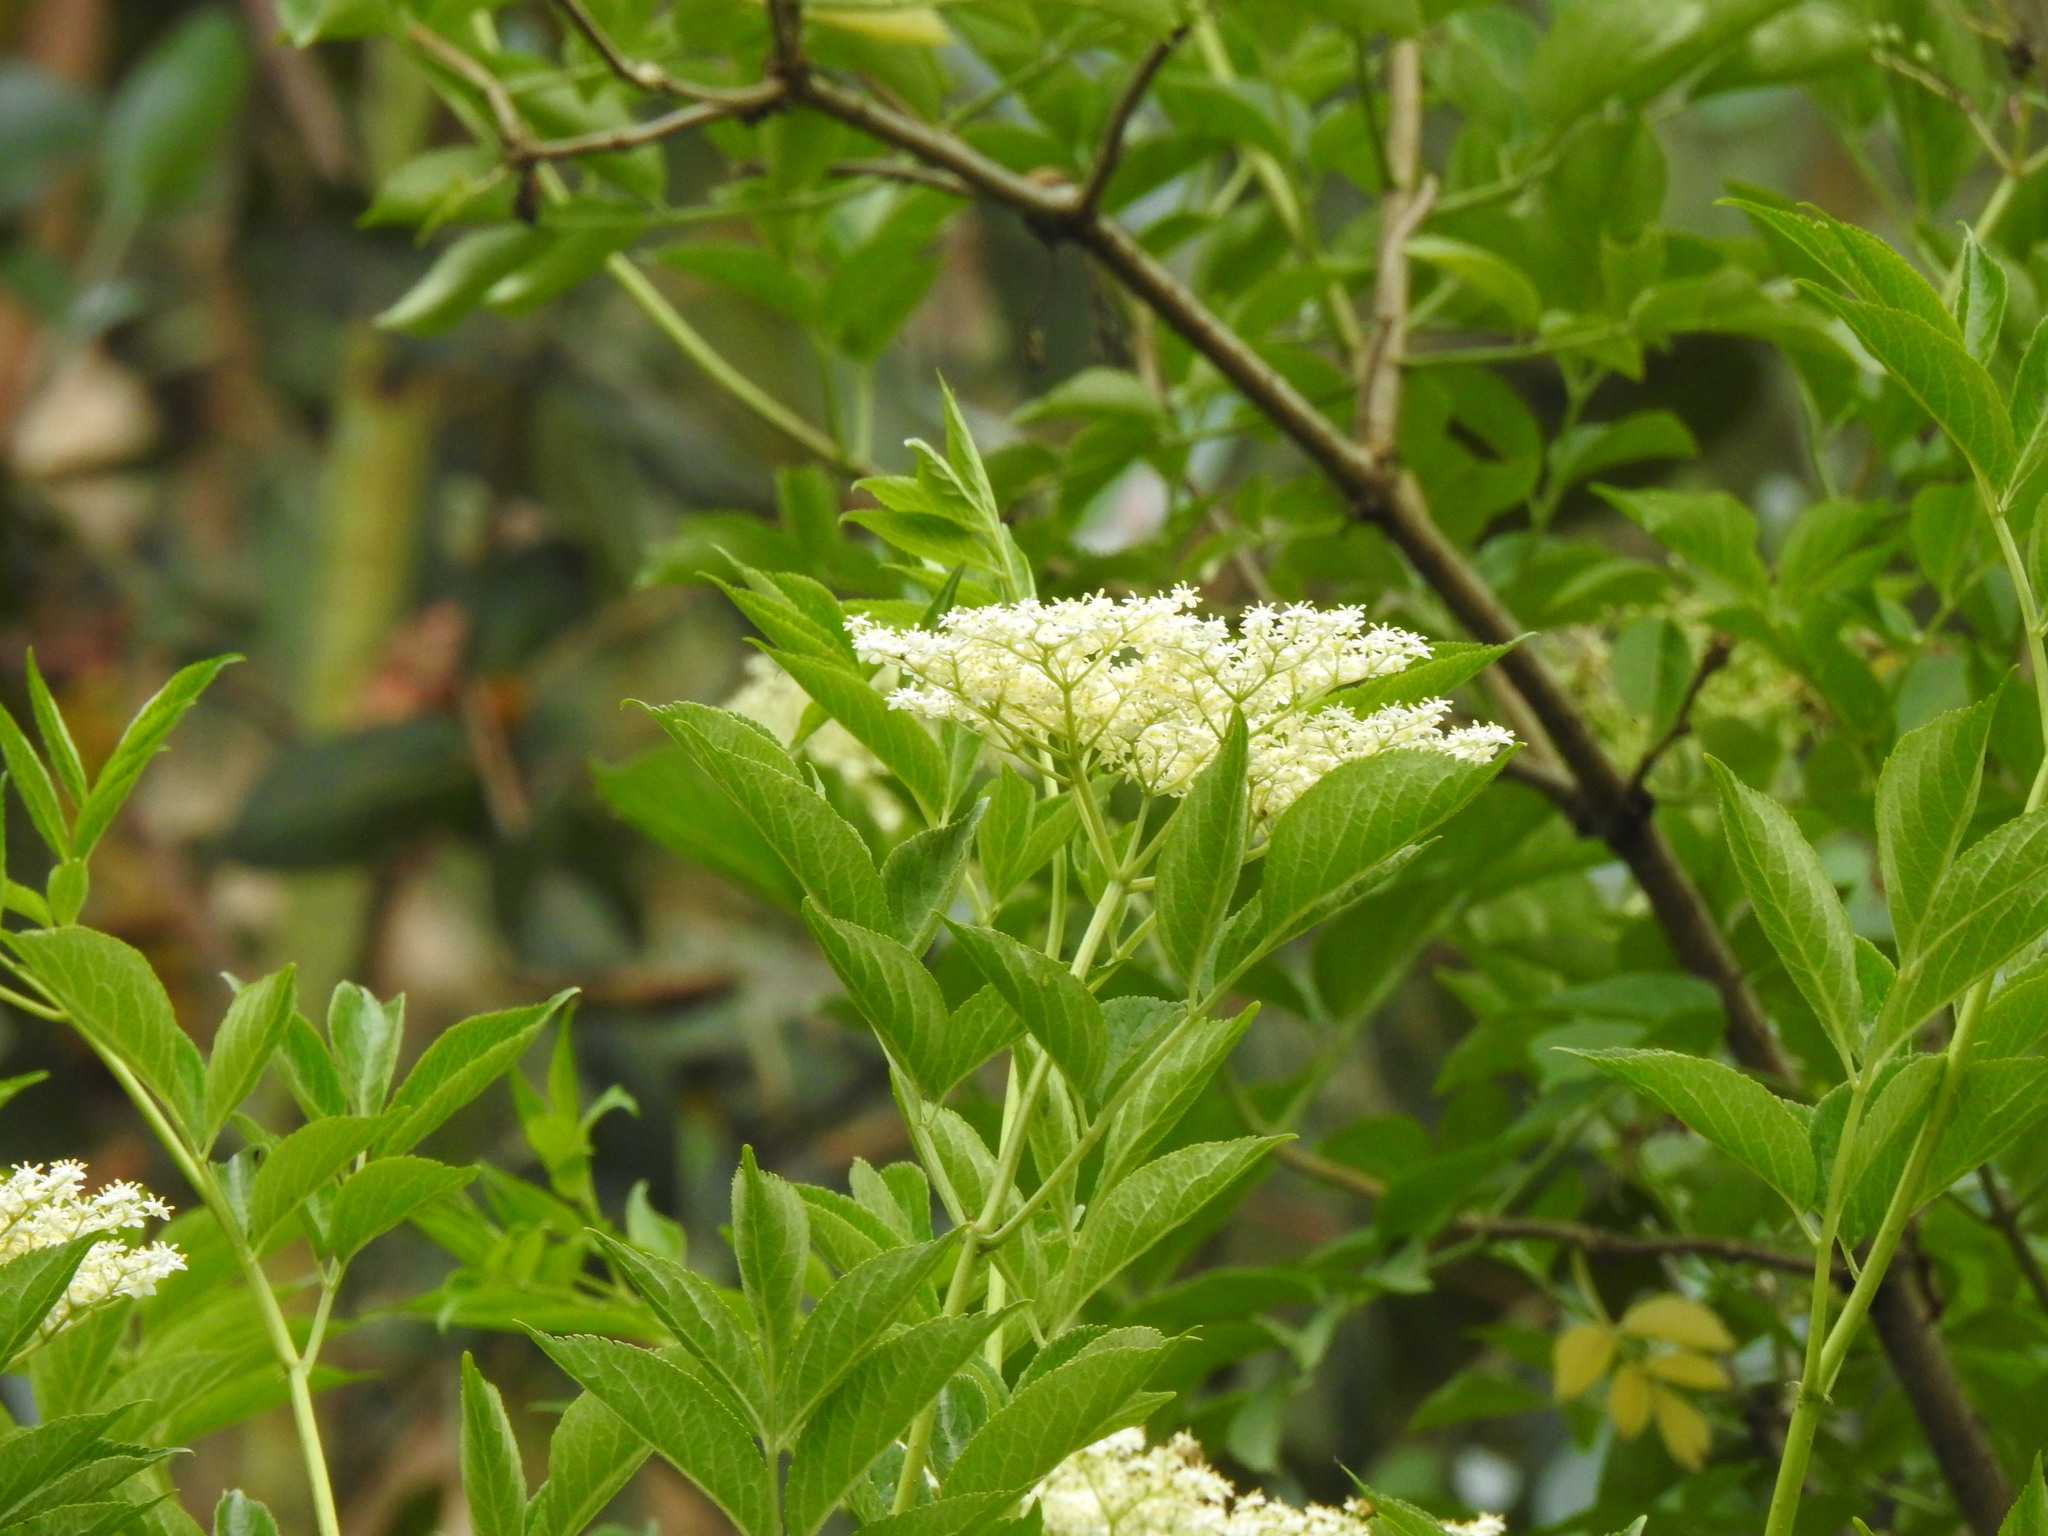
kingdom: Plantae
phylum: Tracheophyta
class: Magnoliopsida
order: Dipsacales
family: Viburnaceae
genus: Sambucus
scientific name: Sambucus nigra
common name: Elder
